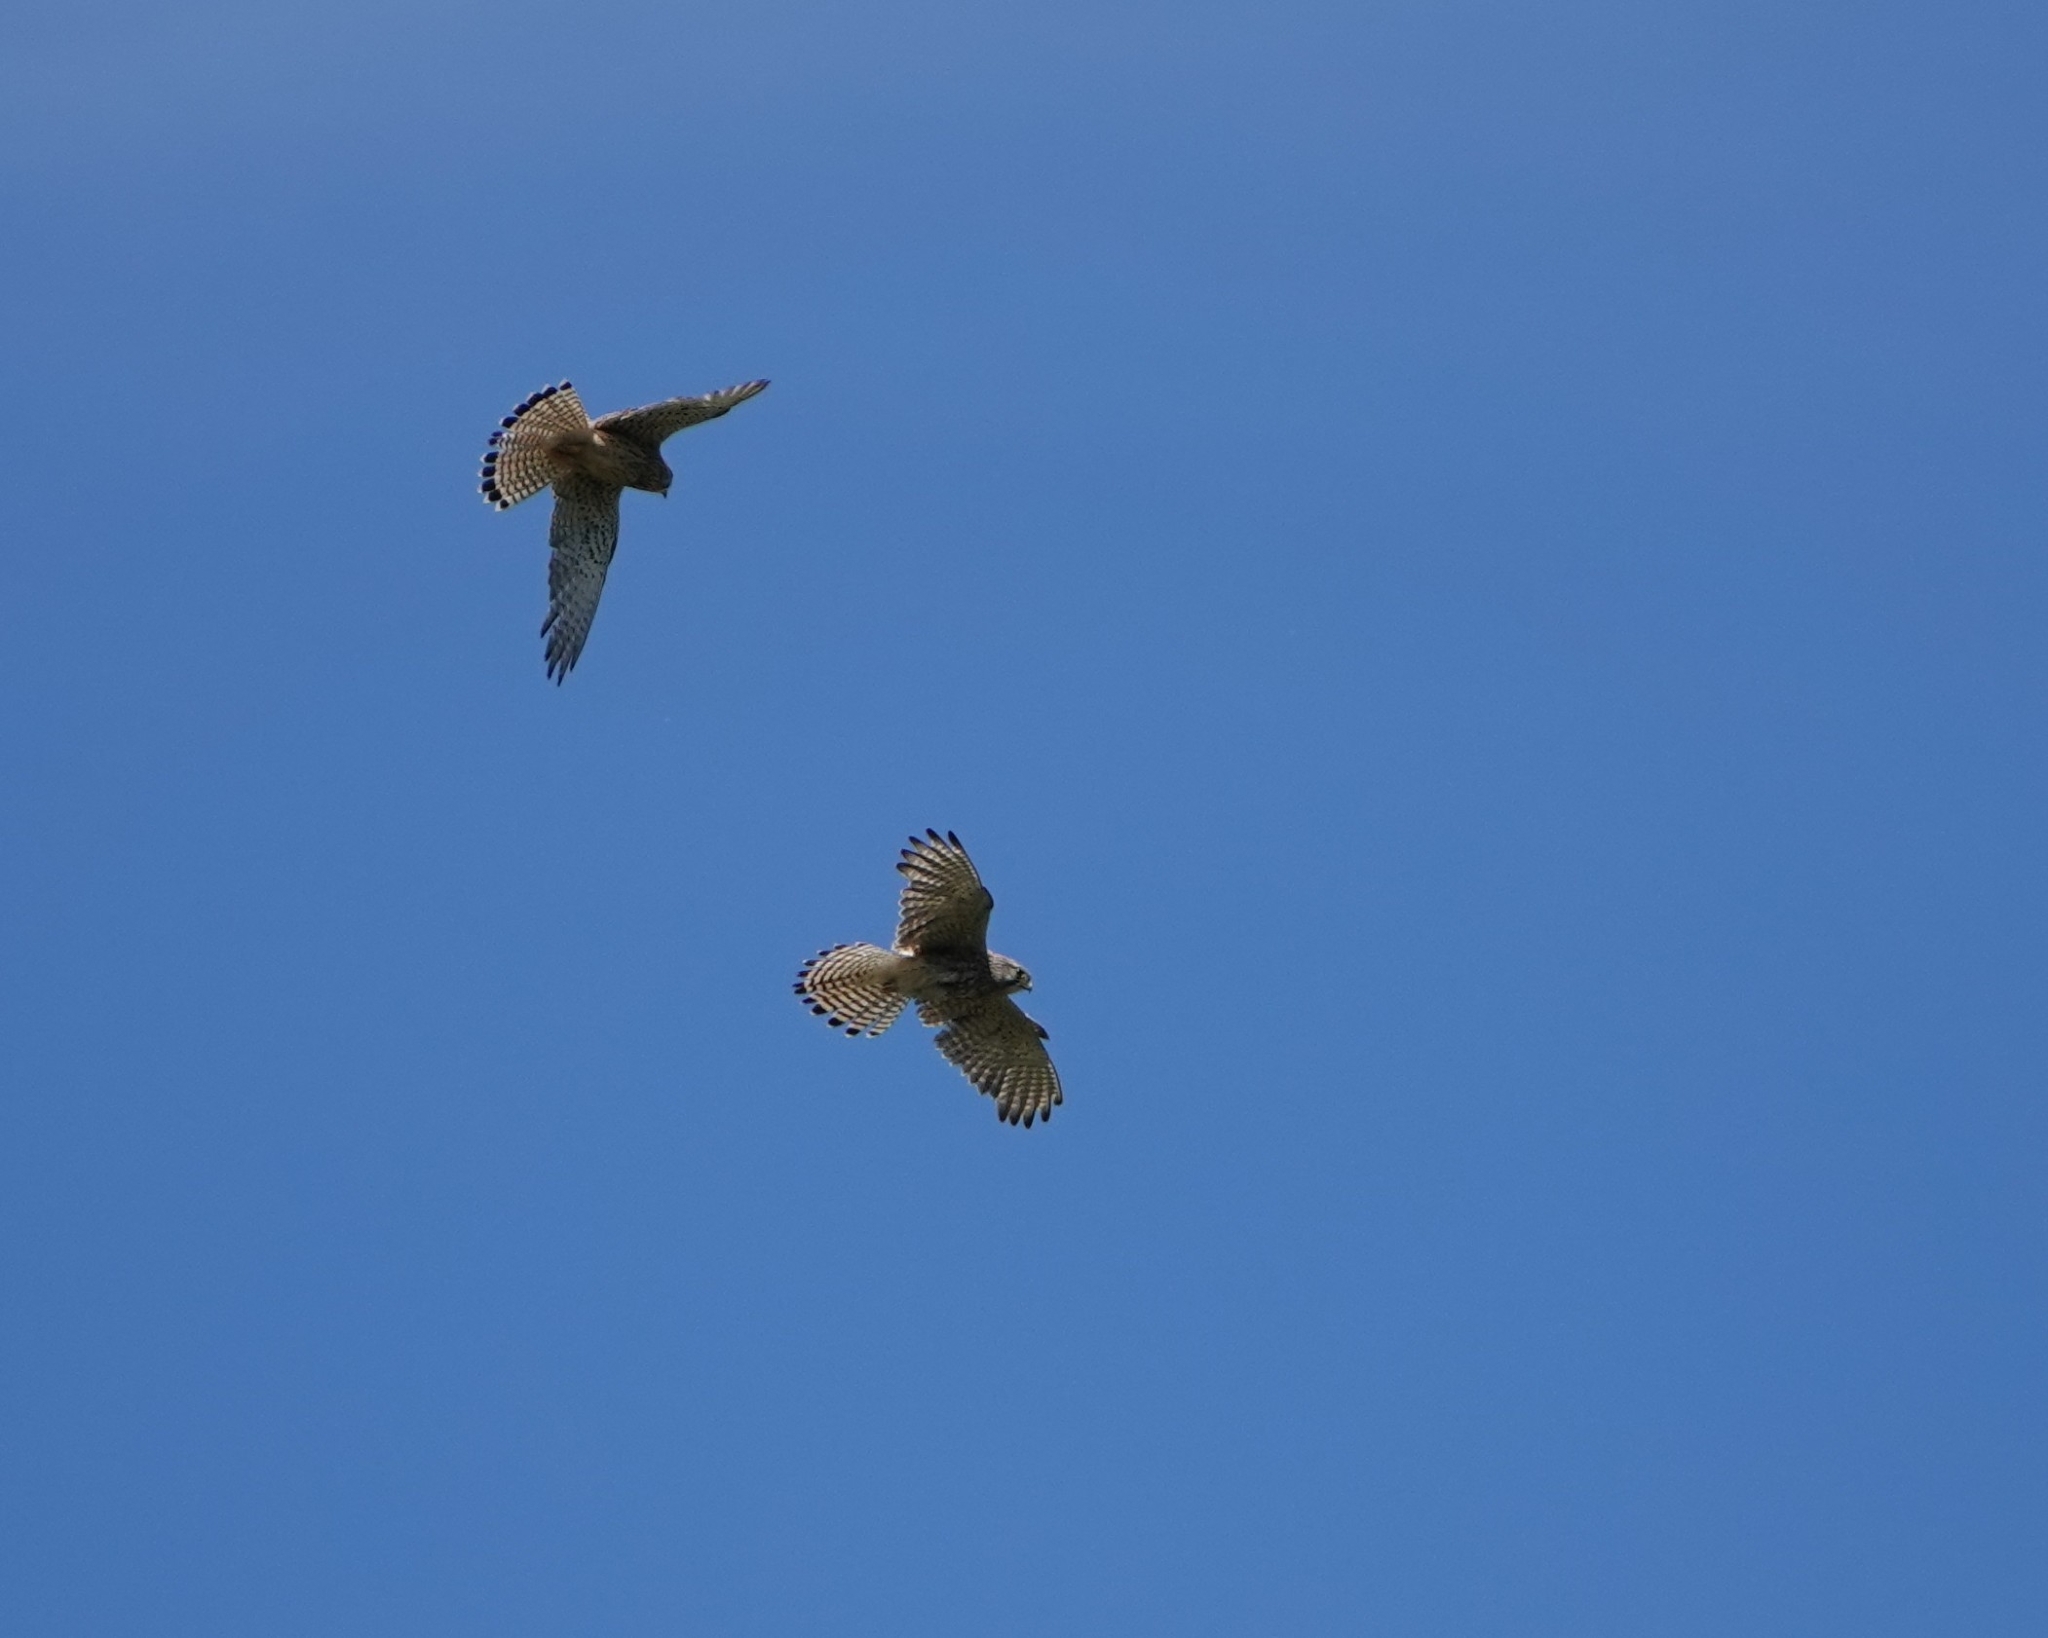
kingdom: Animalia
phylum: Chordata
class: Aves
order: Falconiformes
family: Falconidae
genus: Falco
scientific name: Falco tinnunculus
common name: Common kestrel
